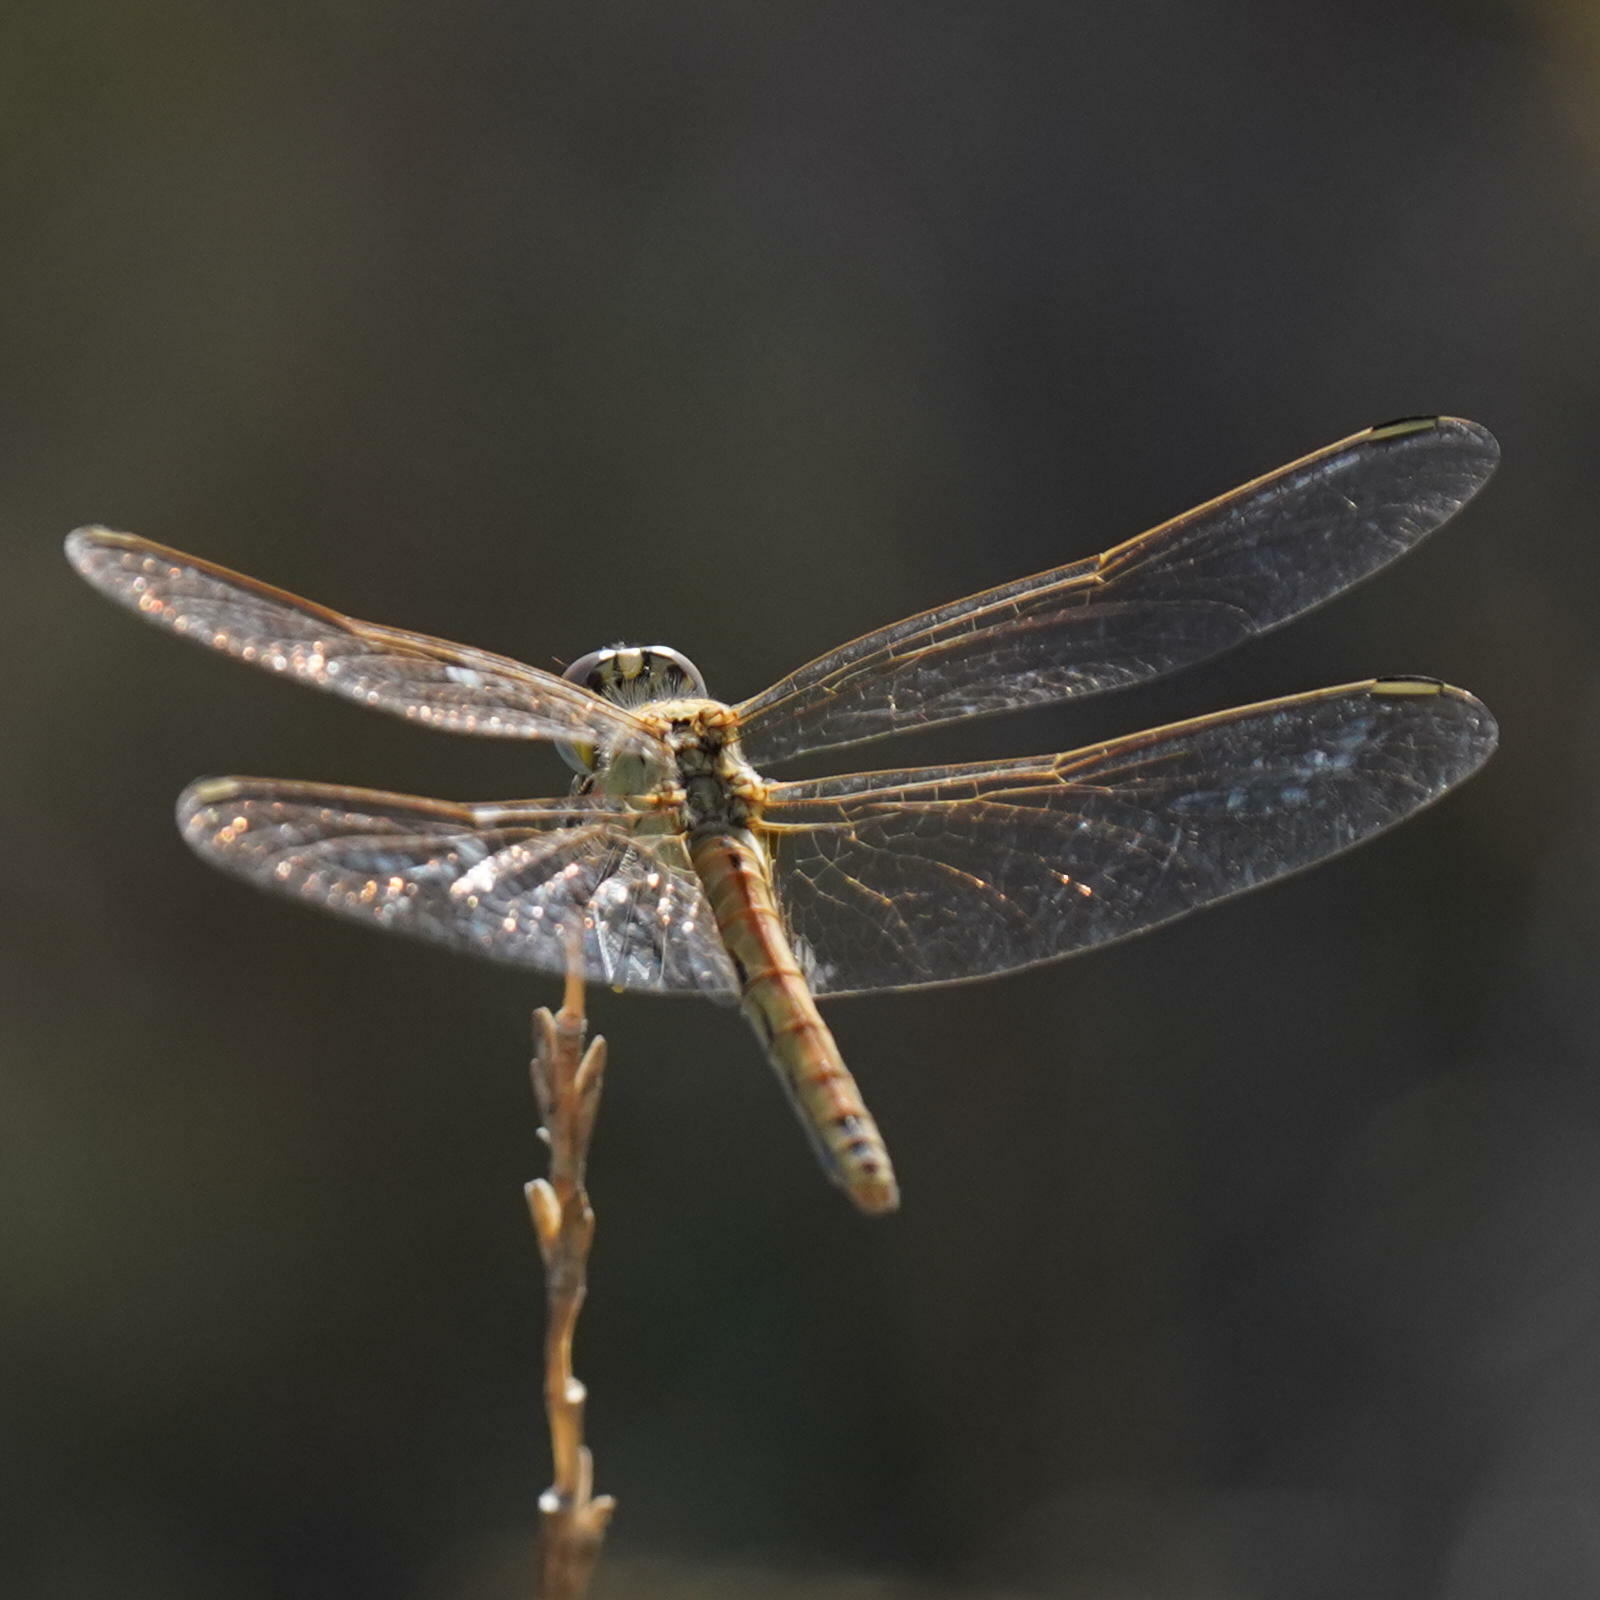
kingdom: Animalia
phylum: Arthropoda
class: Insecta
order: Odonata
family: Libellulidae
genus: Sympetrum
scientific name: Sympetrum fonscolombii
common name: Red-veined darter
